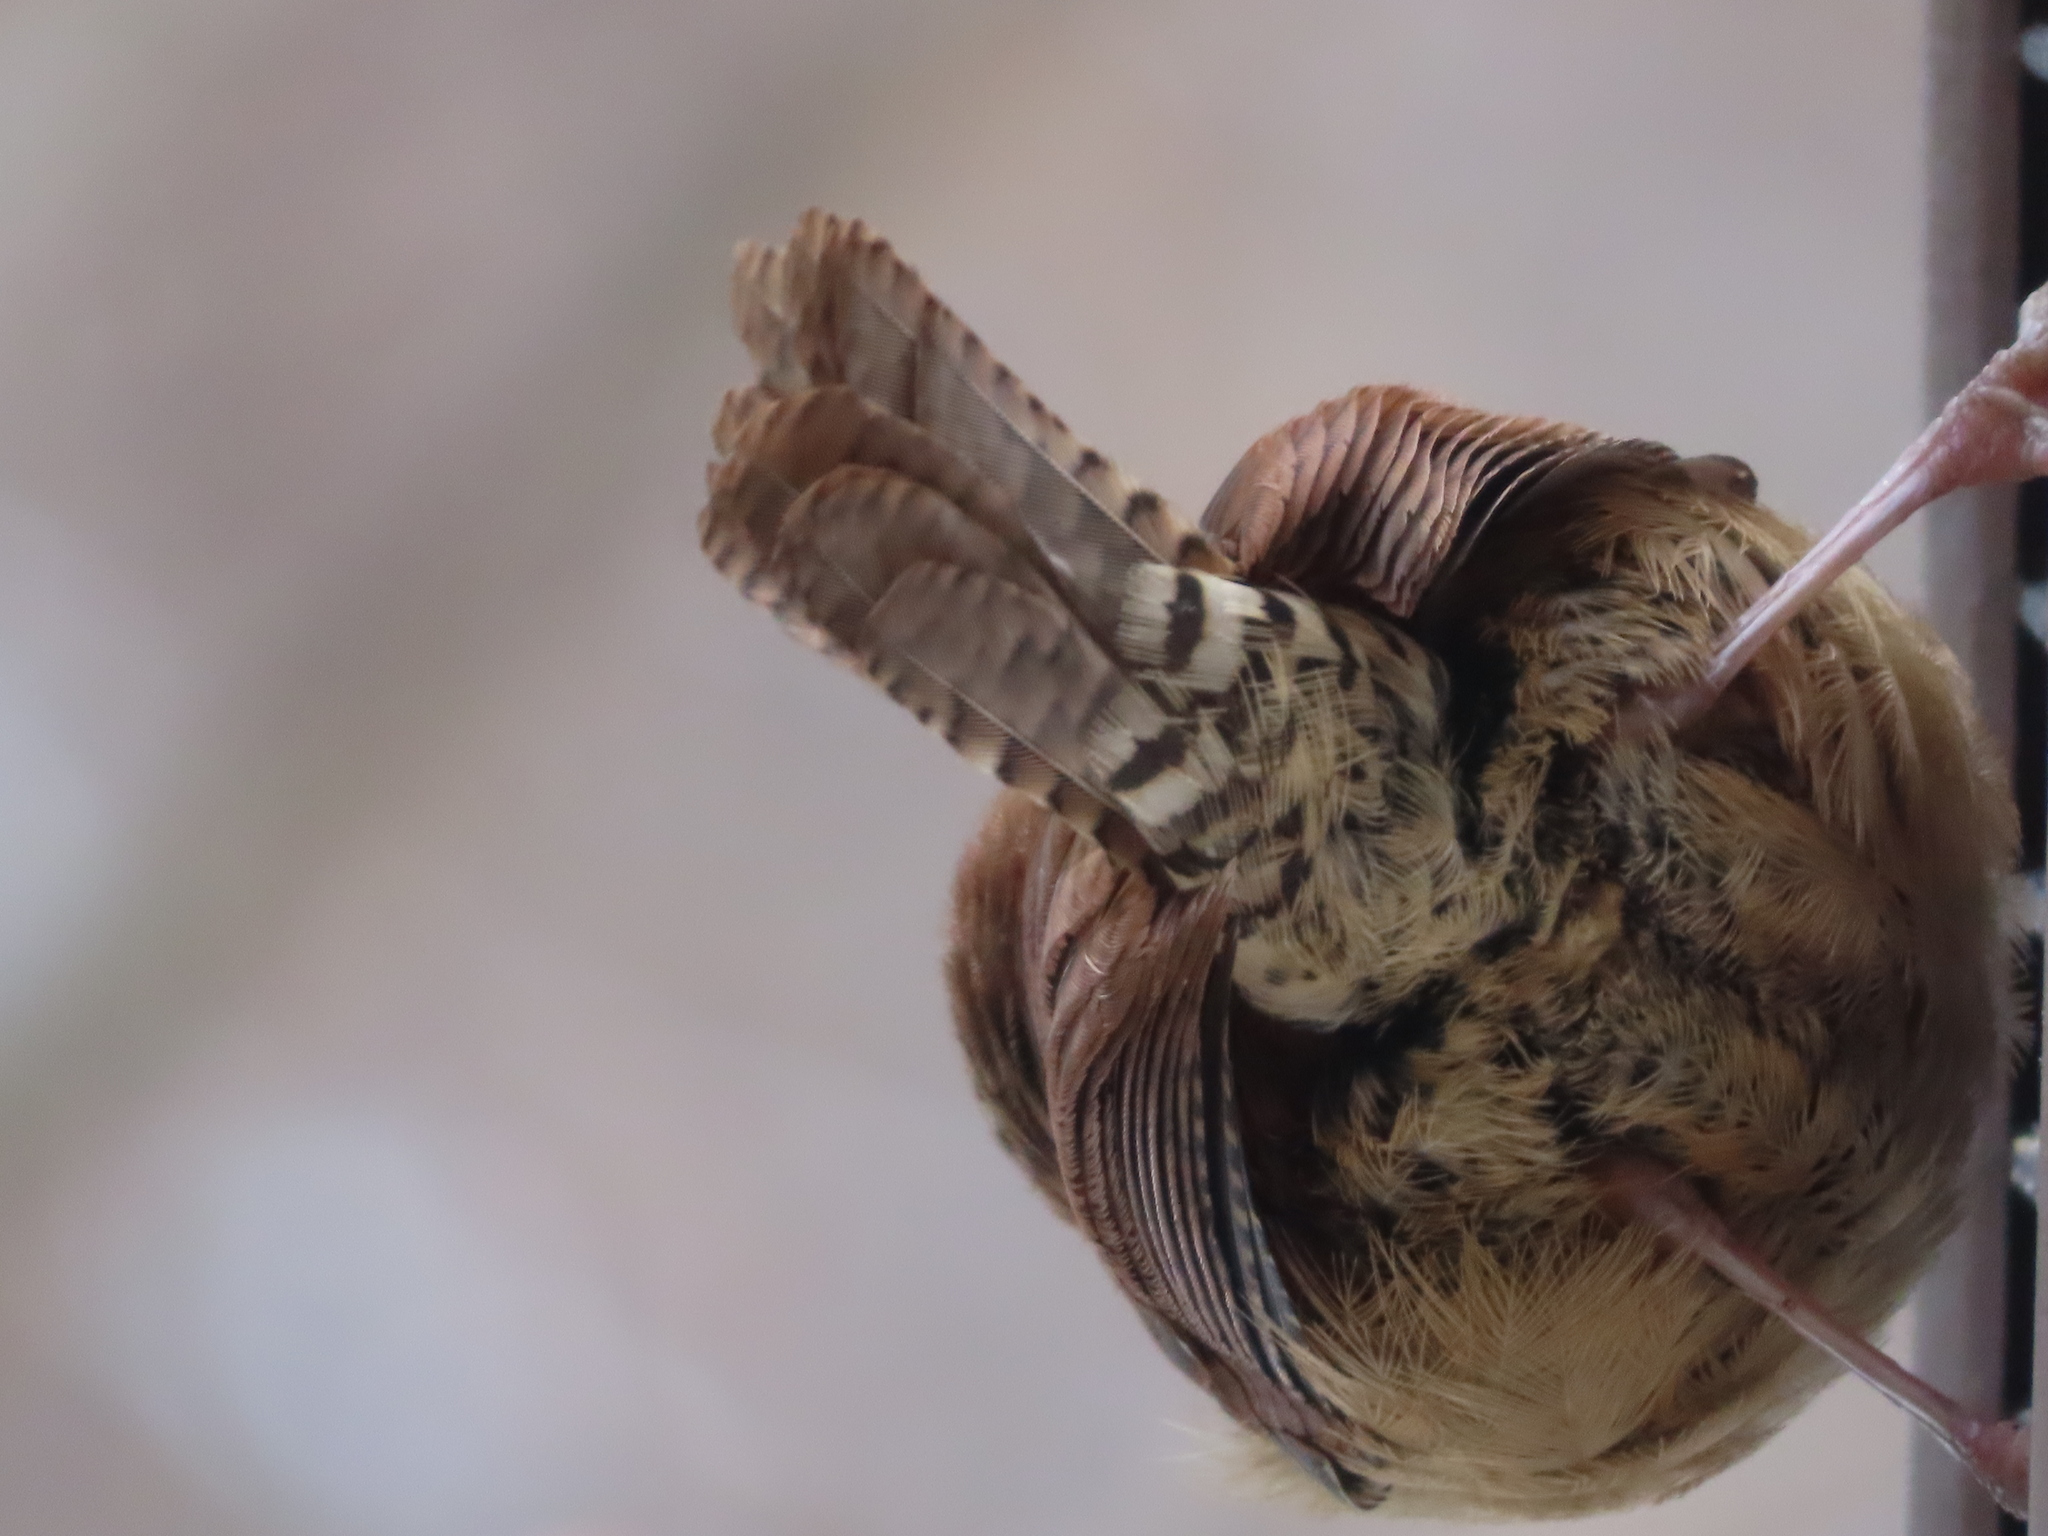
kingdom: Animalia
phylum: Chordata
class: Aves
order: Passeriformes
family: Troglodytidae
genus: Thryothorus
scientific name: Thryothorus ludovicianus
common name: Carolina wren
